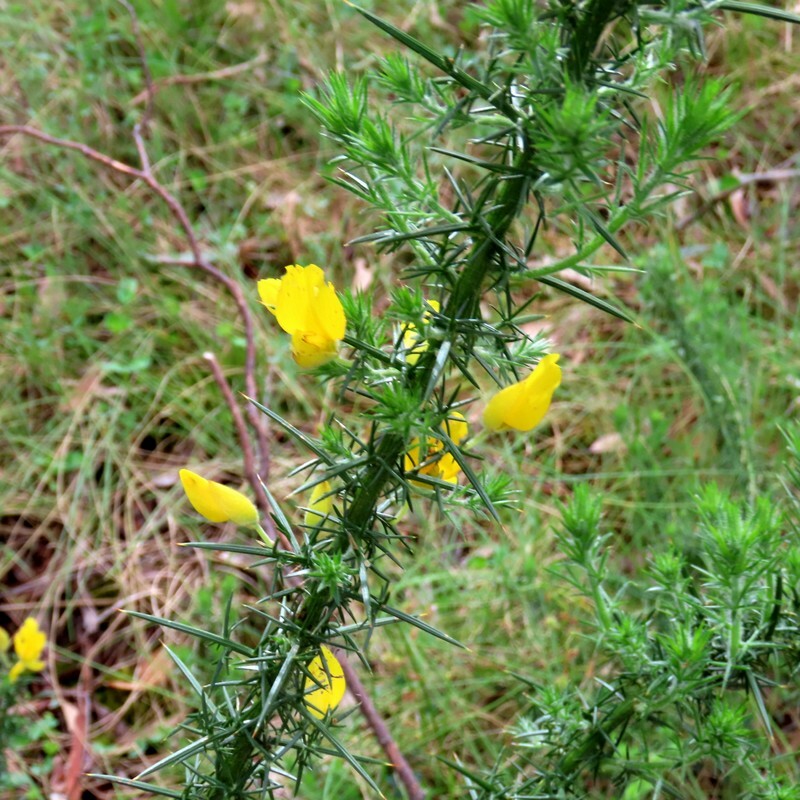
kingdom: Plantae
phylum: Tracheophyta
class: Magnoliopsida
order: Fabales
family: Fabaceae
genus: Ulex
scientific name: Ulex europaeus
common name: Common gorse
